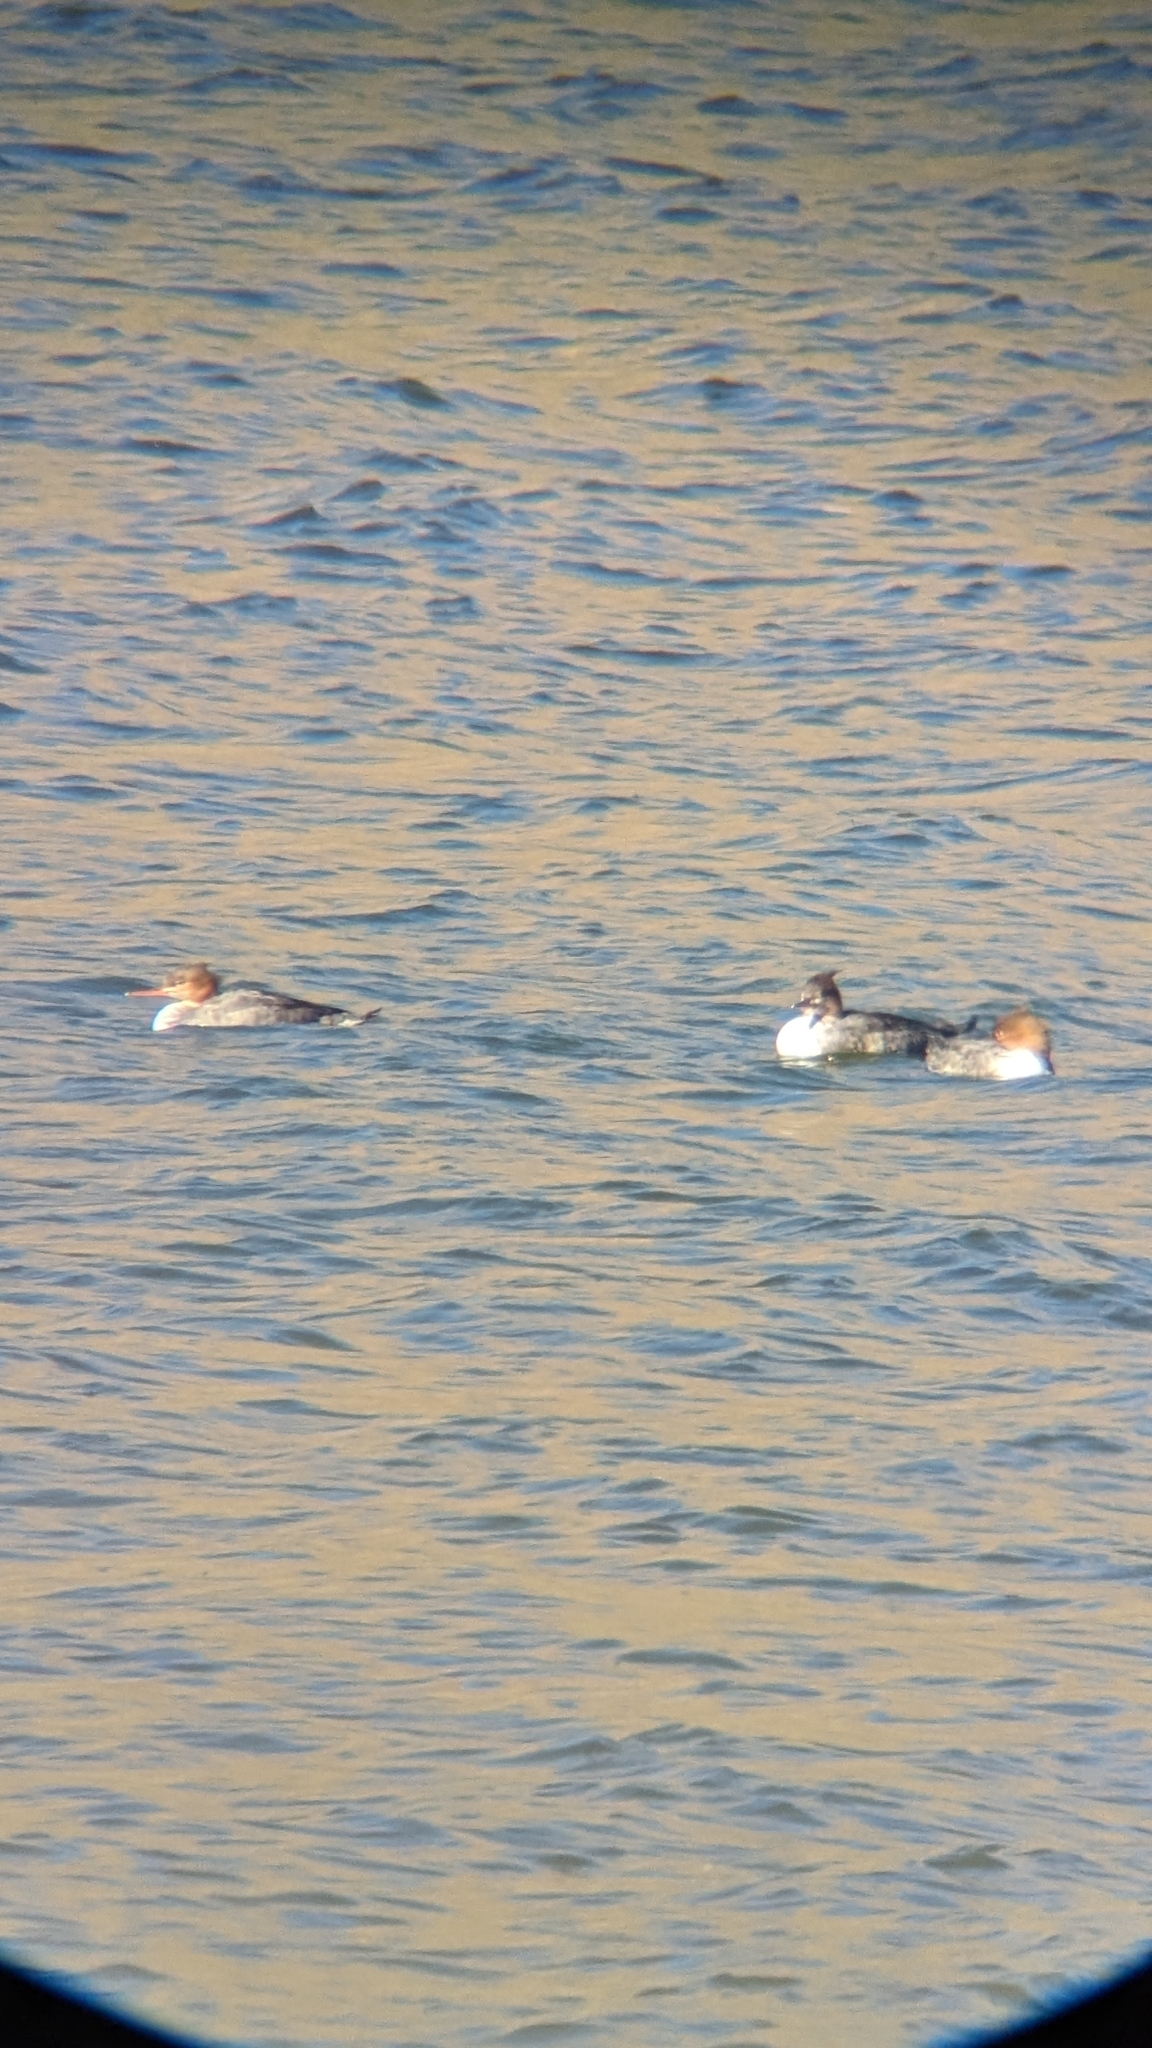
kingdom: Animalia
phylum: Chordata
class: Aves
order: Anseriformes
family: Anatidae
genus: Mergus
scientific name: Mergus serrator
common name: Red-breasted merganser
